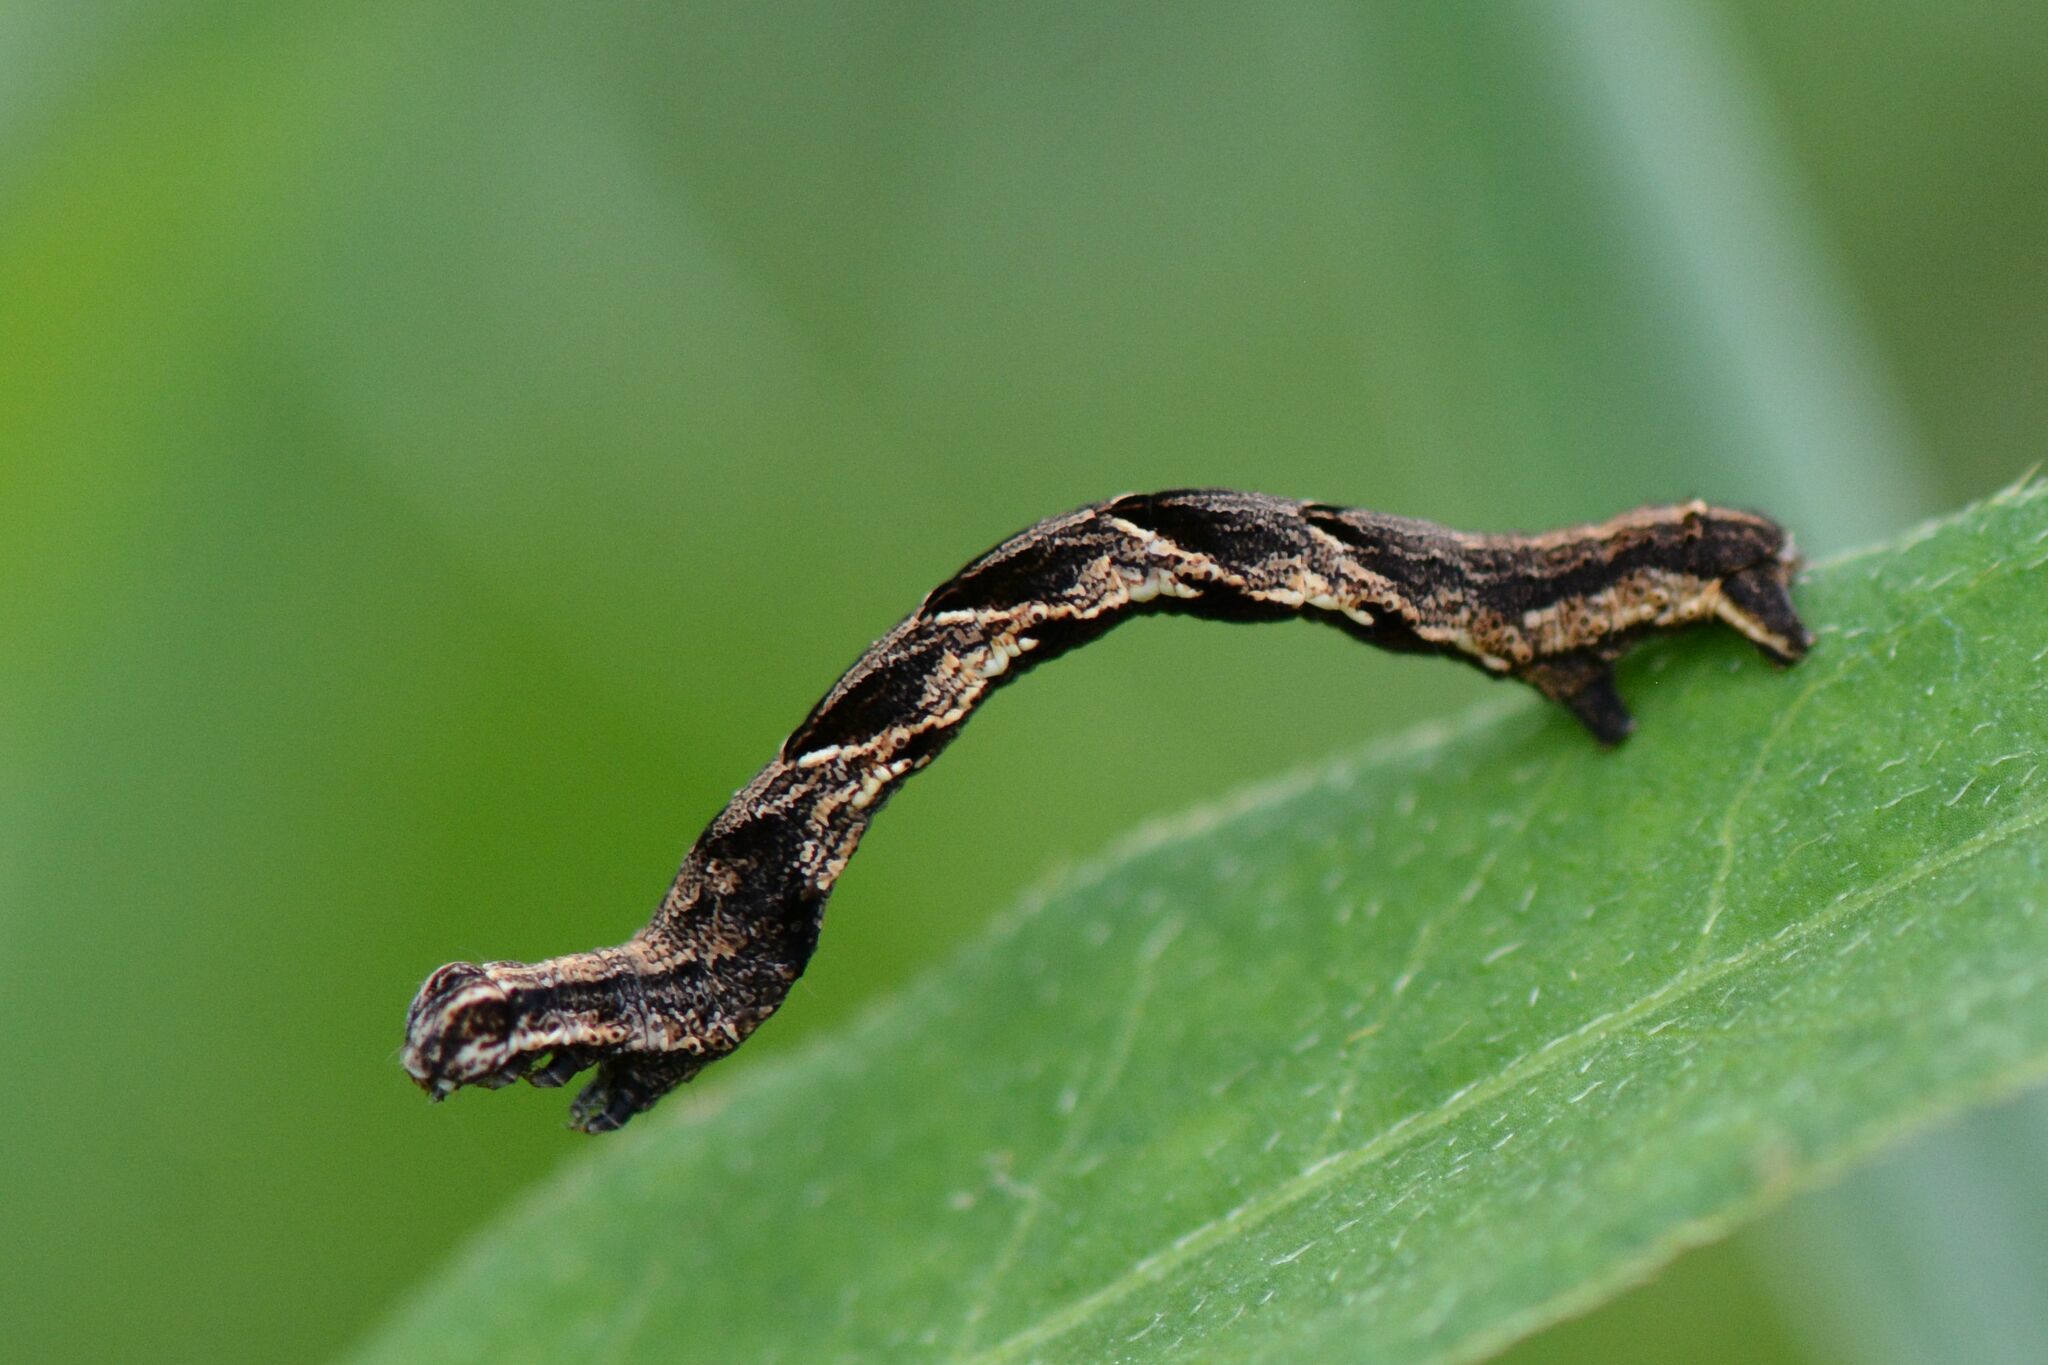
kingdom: Animalia
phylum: Arthropoda
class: Insecta
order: Lepidoptera
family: Geometridae
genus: Timandra
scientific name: Timandra comae
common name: Blood-vein
